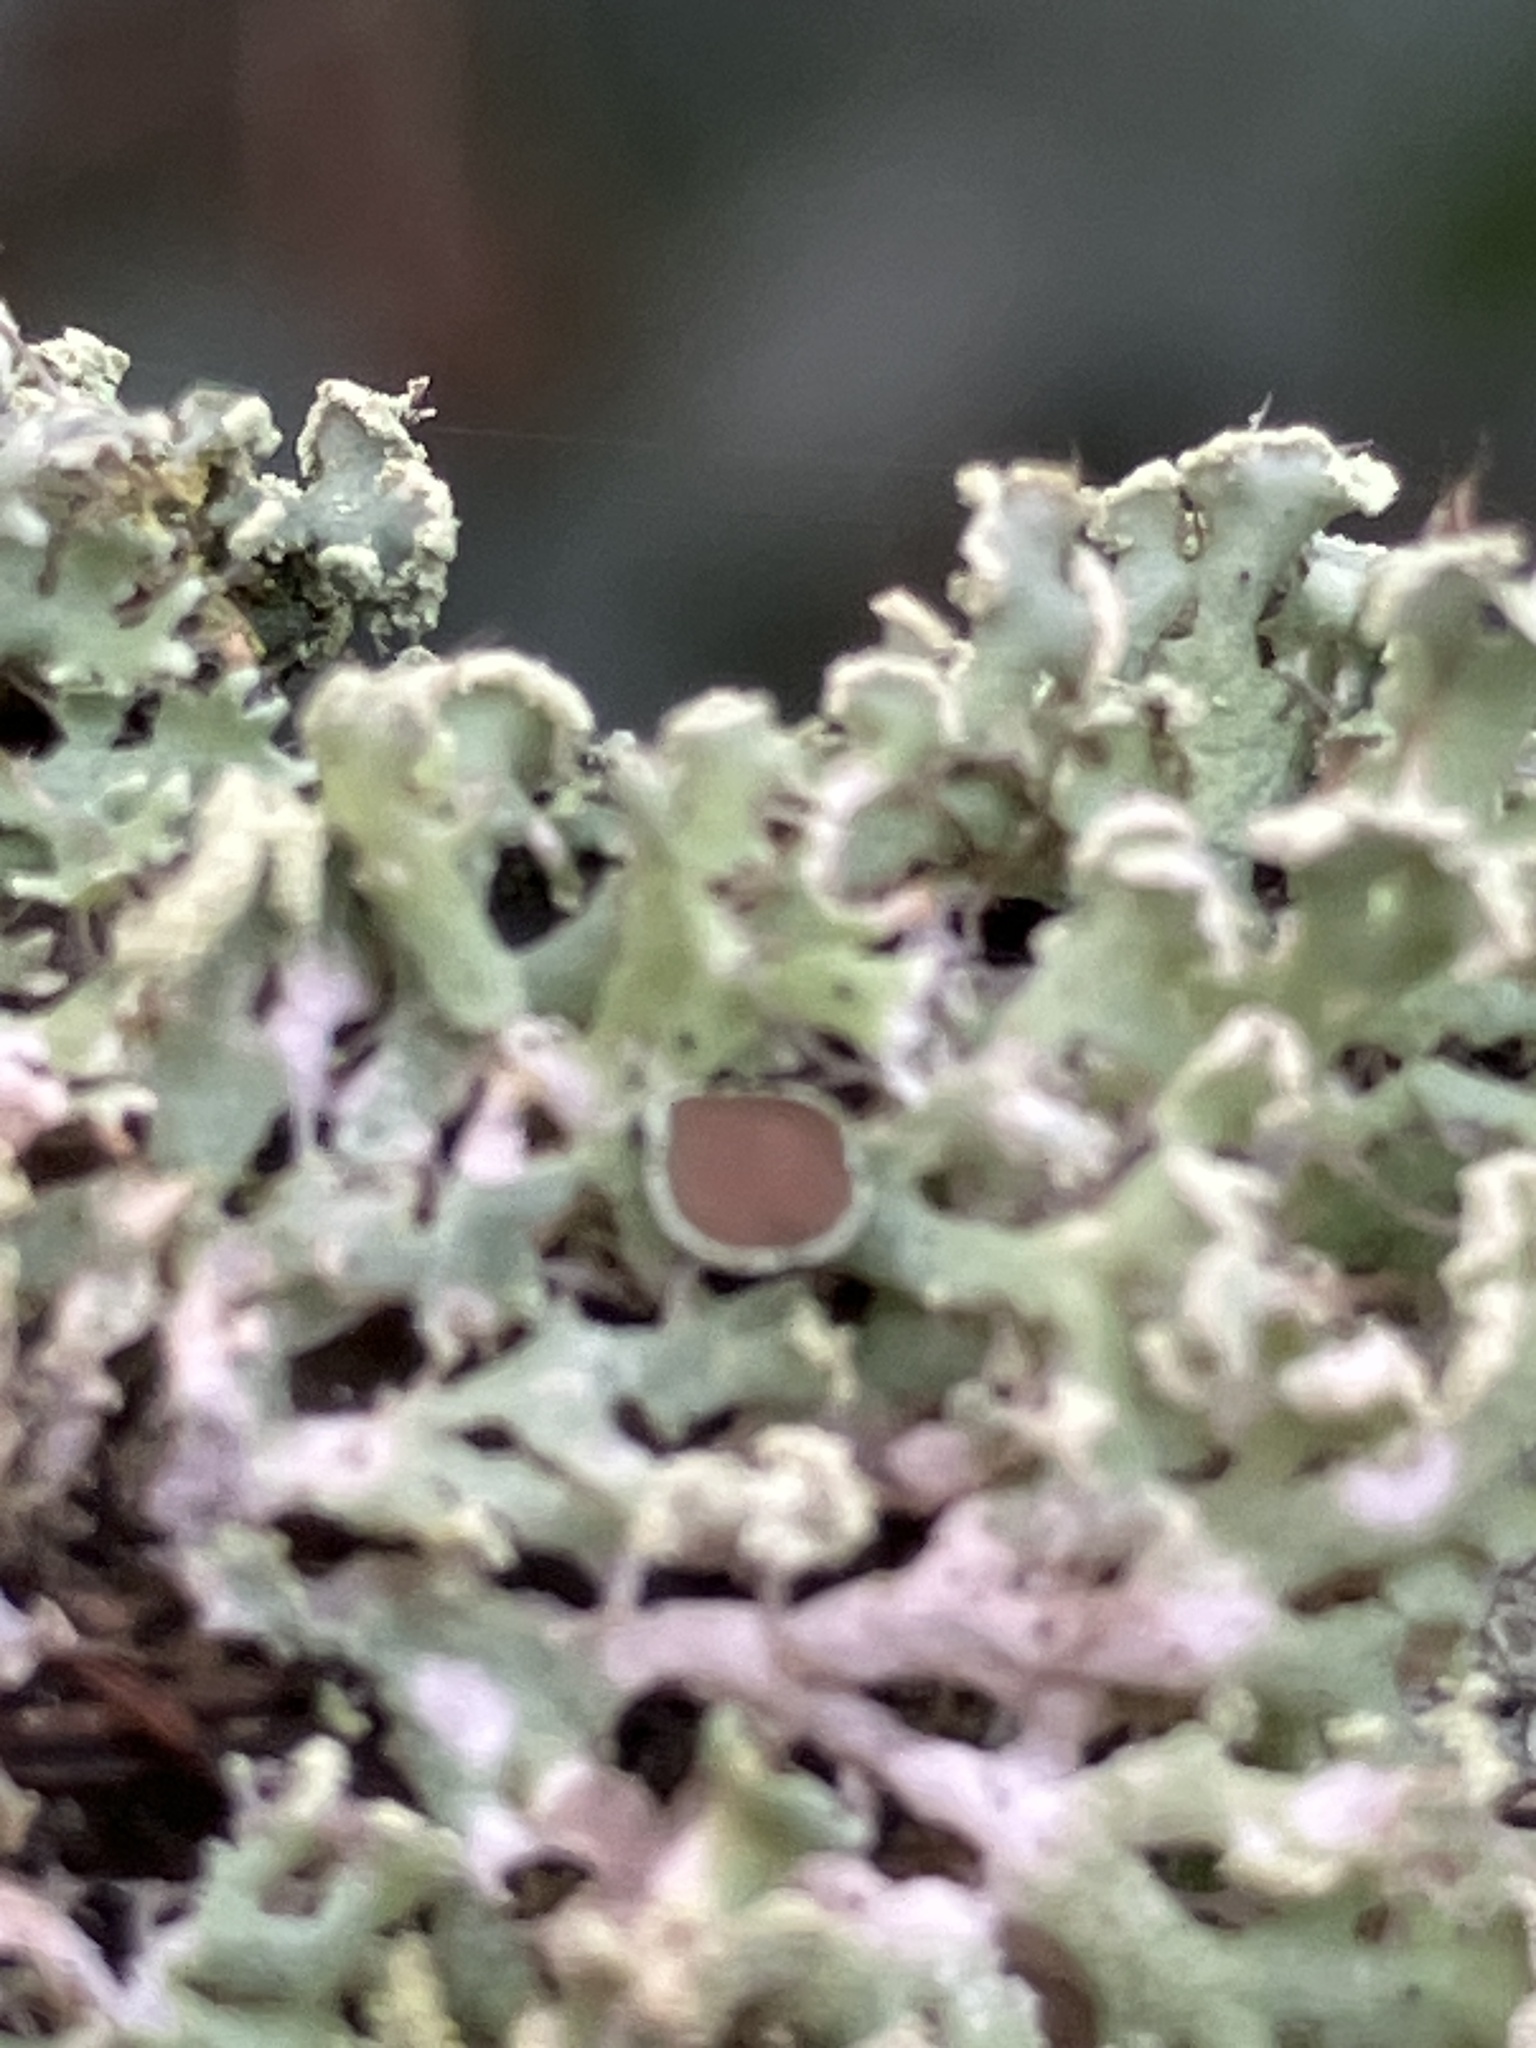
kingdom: Fungi
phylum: Ascomycota
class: Lecanoromycetes
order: Caliciales
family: Physciaceae
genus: Physcia
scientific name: Physcia tenella
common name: Fringed rosette lichen
